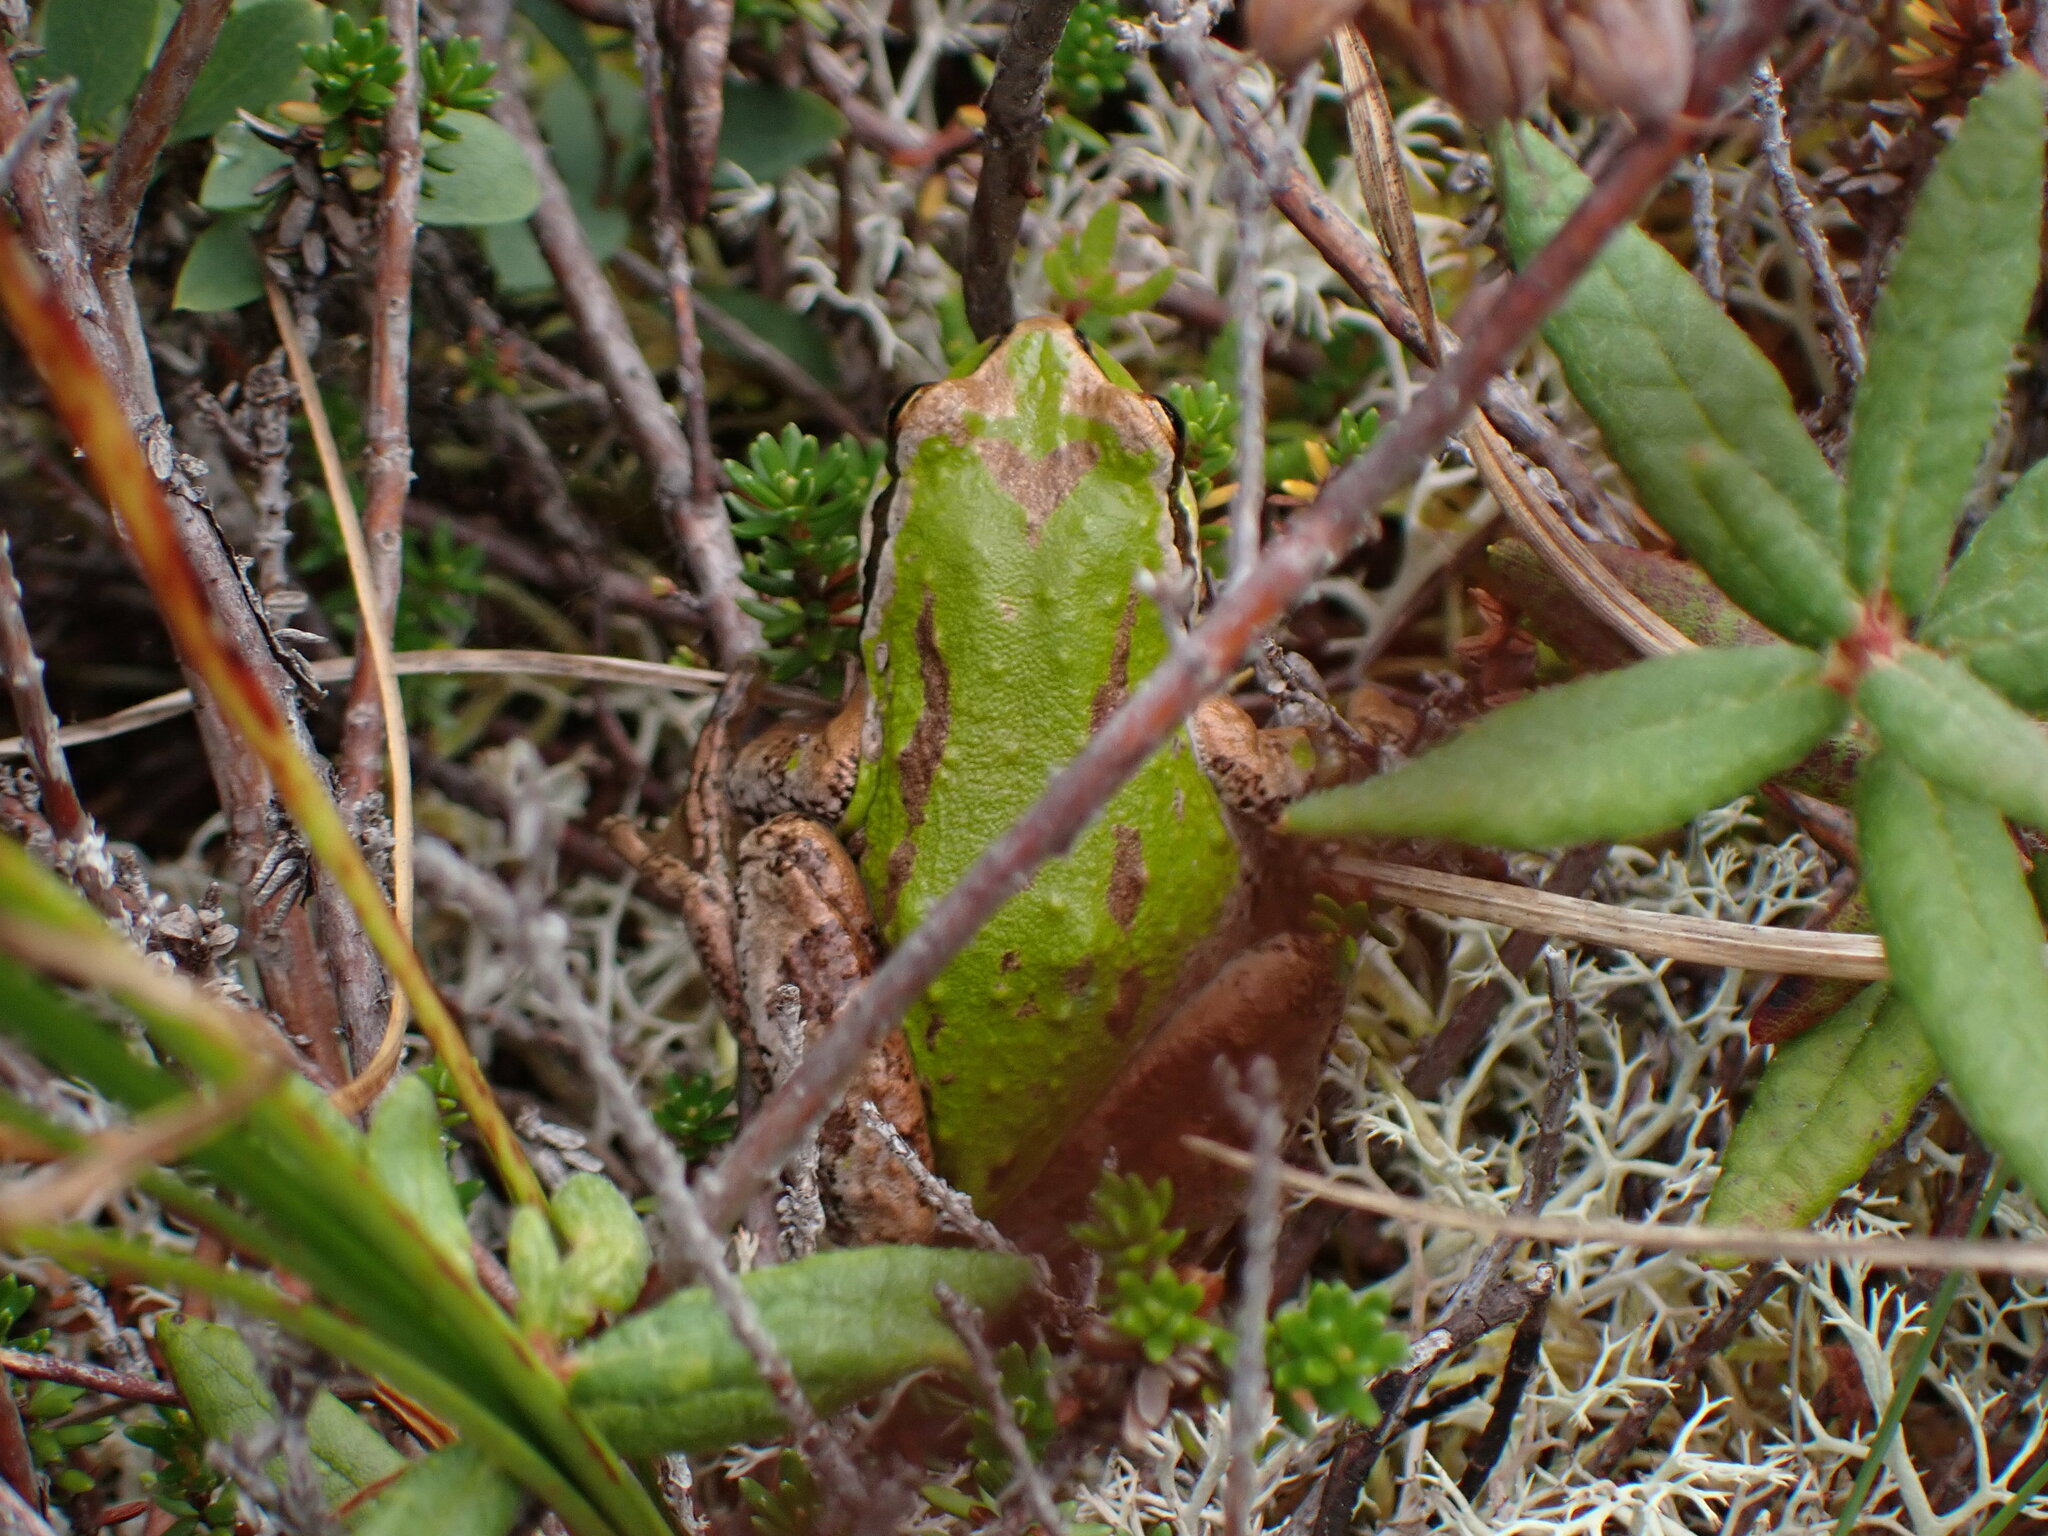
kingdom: Animalia
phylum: Chordata
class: Amphibia
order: Anura
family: Hylidae
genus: Pseudacris
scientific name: Pseudacris regilla
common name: Pacific chorus frog
